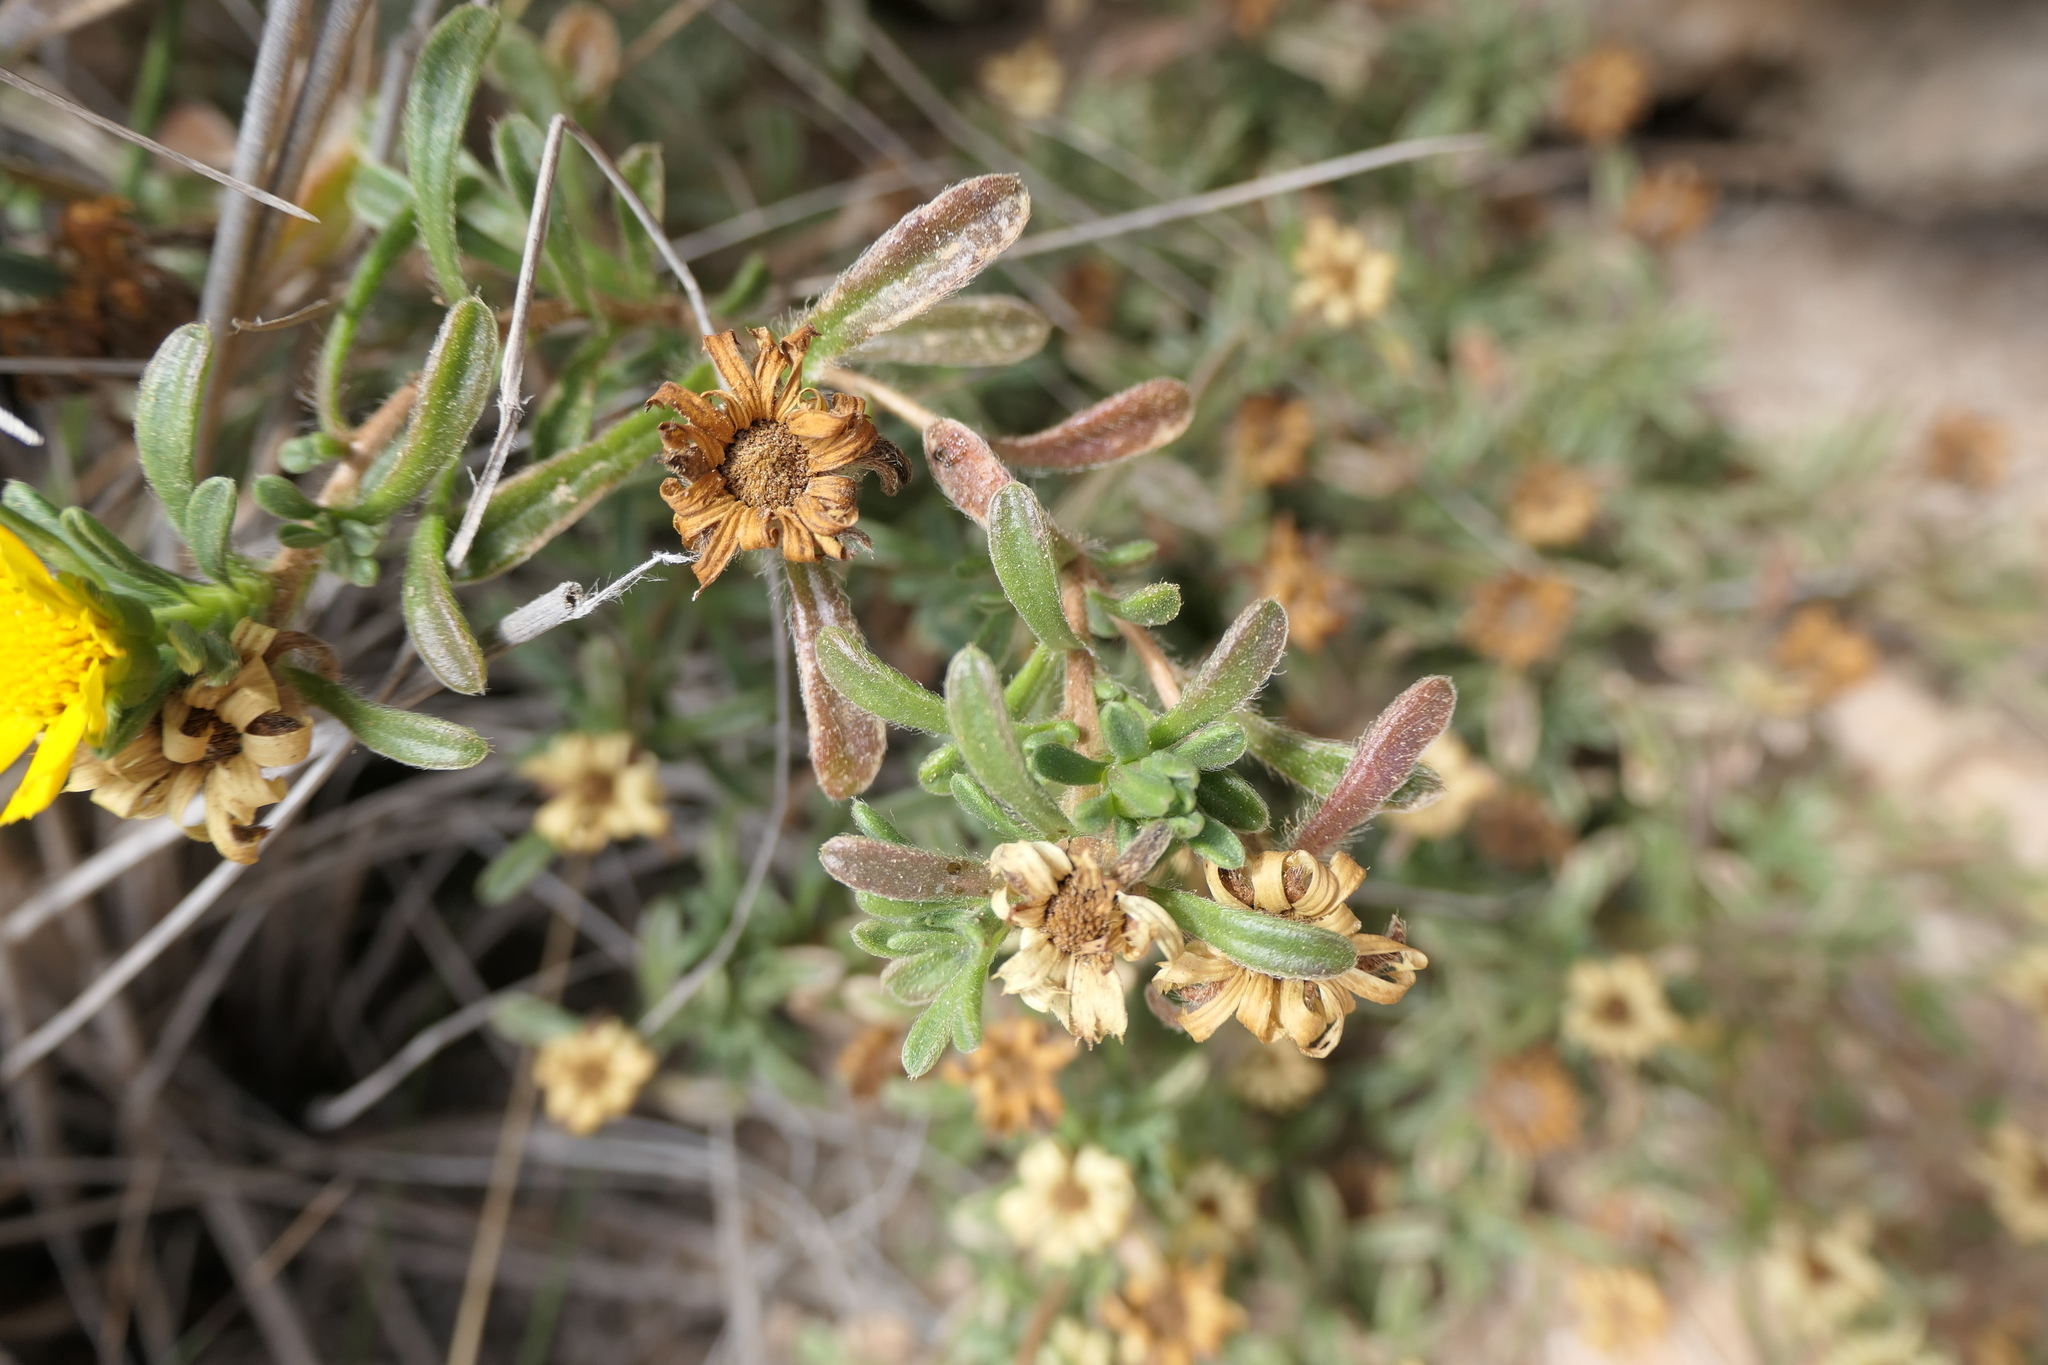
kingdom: Plantae
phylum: Tracheophyta
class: Magnoliopsida
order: Asterales
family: Asteraceae
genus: Pallenis
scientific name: Pallenis maritima
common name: Golden coin daisy
